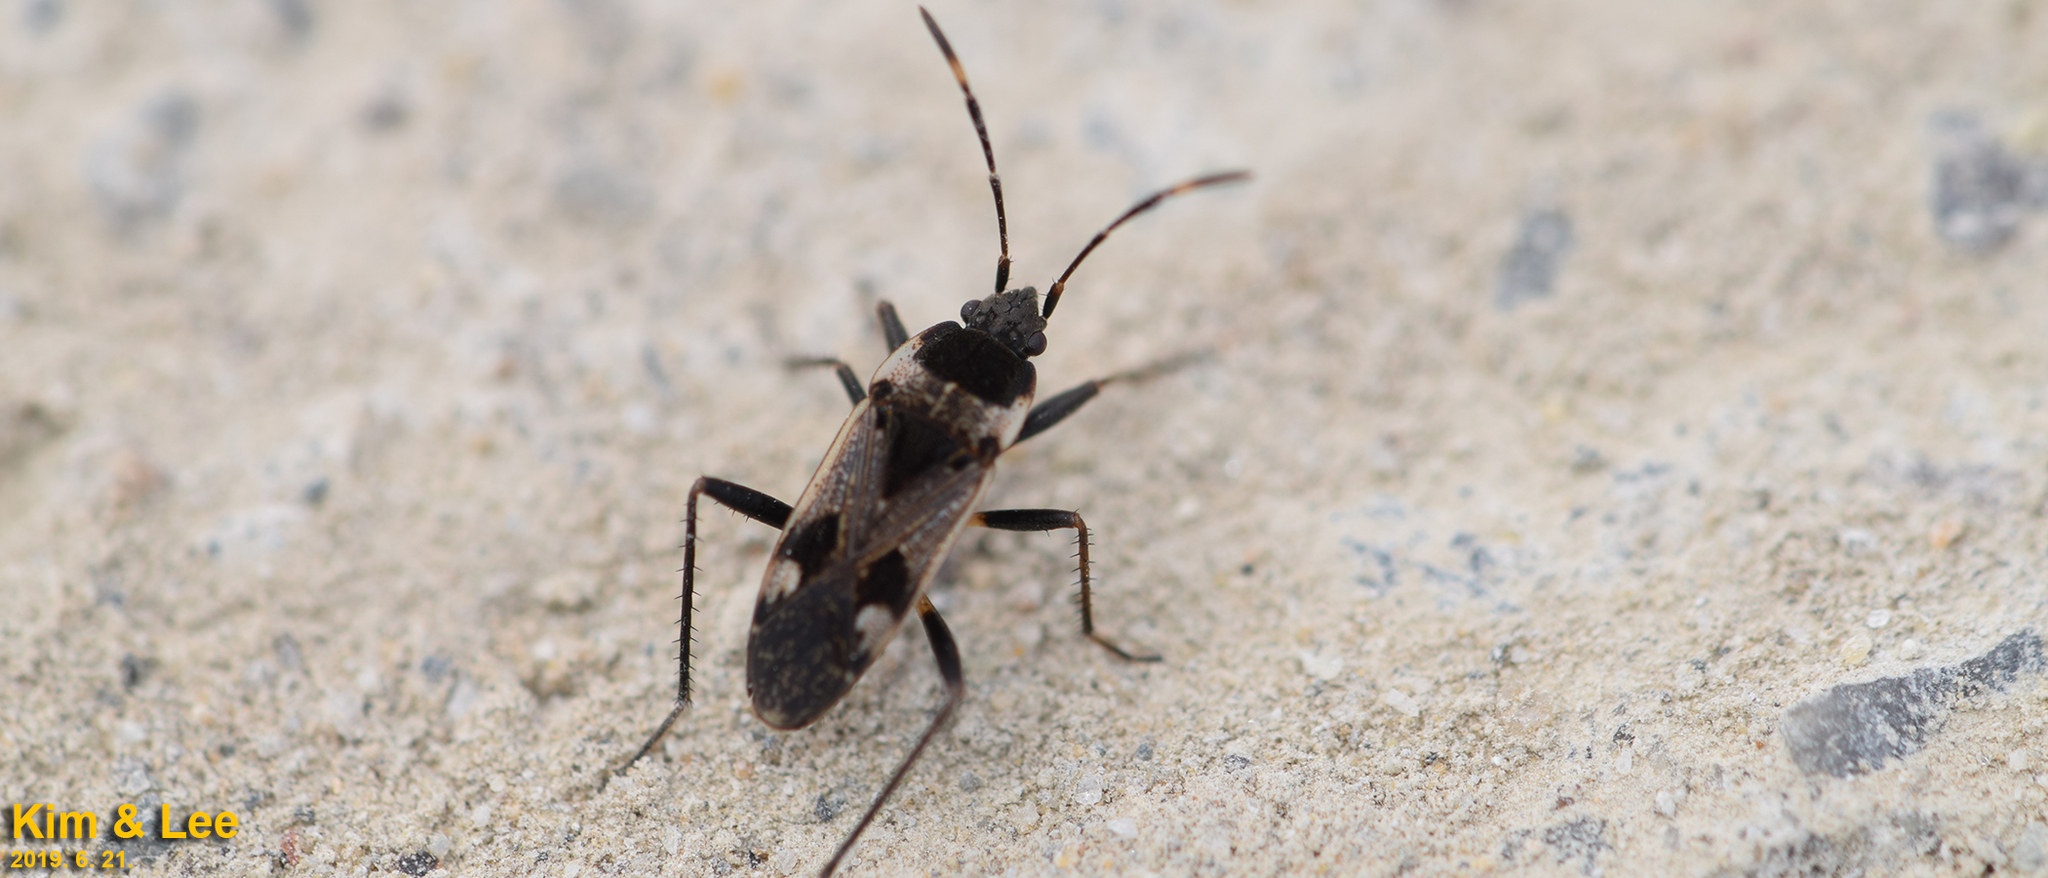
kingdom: Animalia
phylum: Arthropoda
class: Insecta
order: Hemiptera
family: Rhyparochromidae
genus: Panaorus
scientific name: Panaorus albomaculatus
